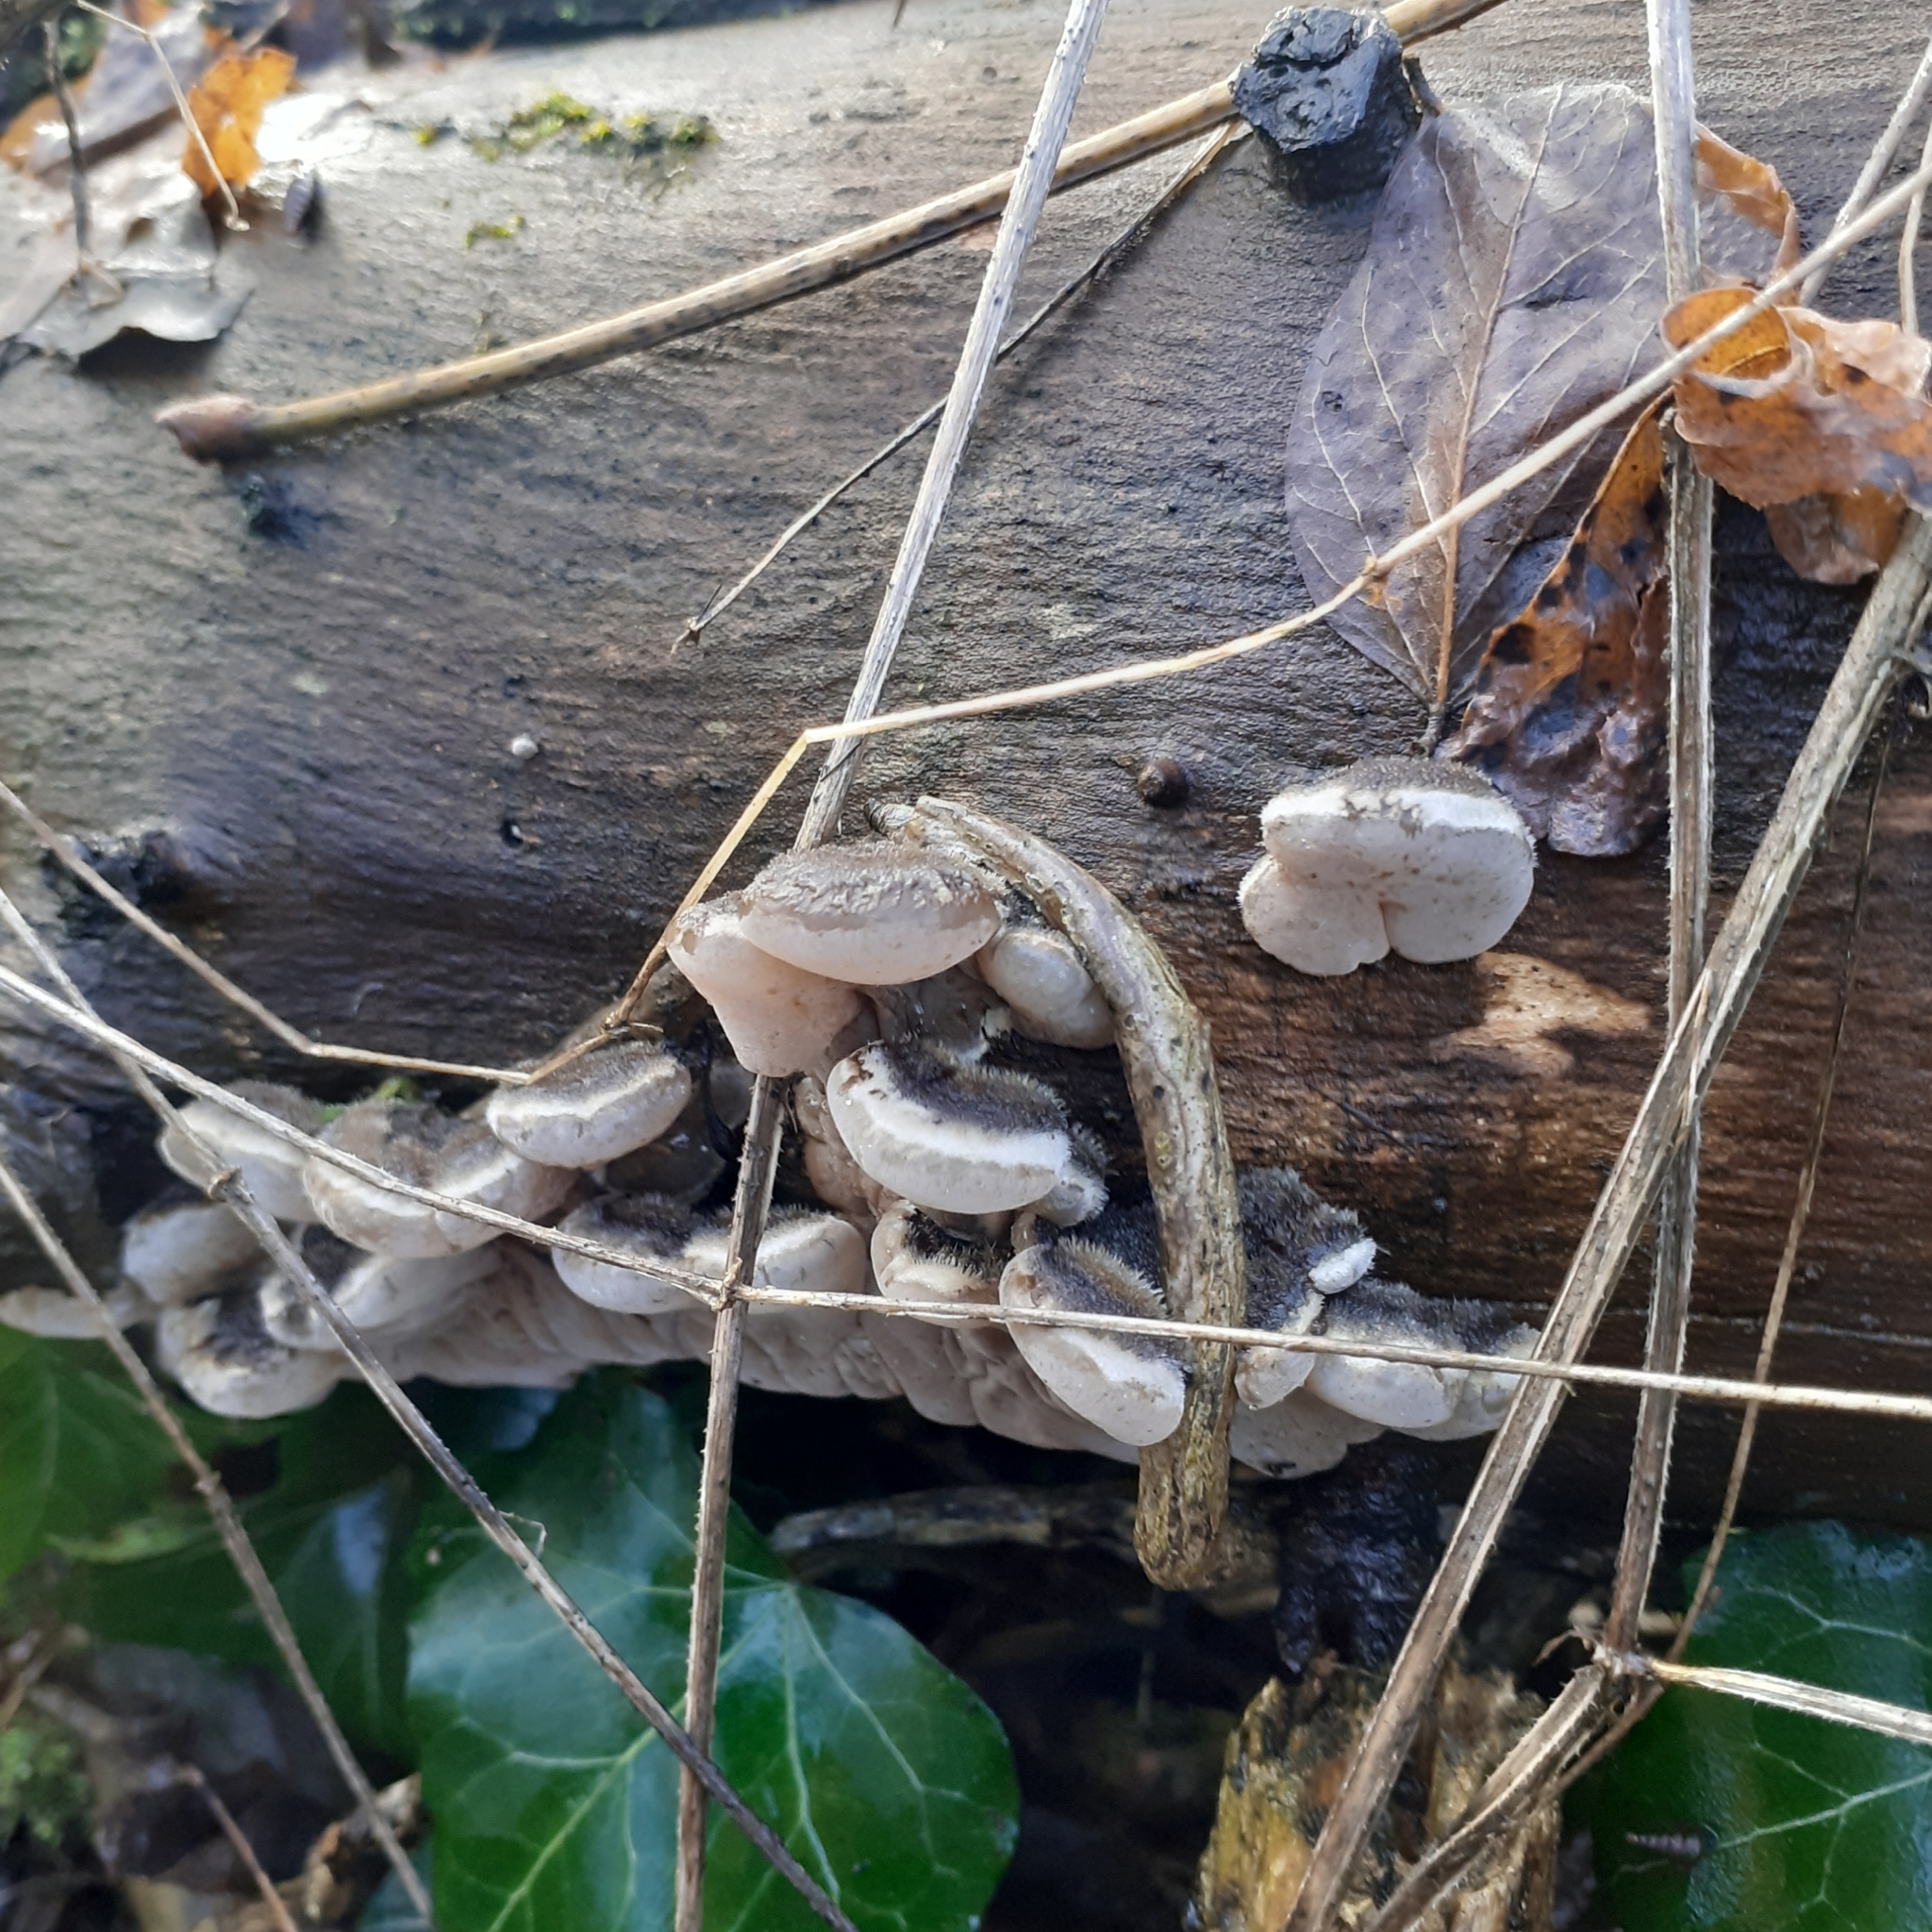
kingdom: Fungi
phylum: Basidiomycota
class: Agaricomycetes
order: Auriculariales
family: Auriculariaceae
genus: Auricularia
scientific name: Auricularia mesenterica
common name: Tripe fungus
